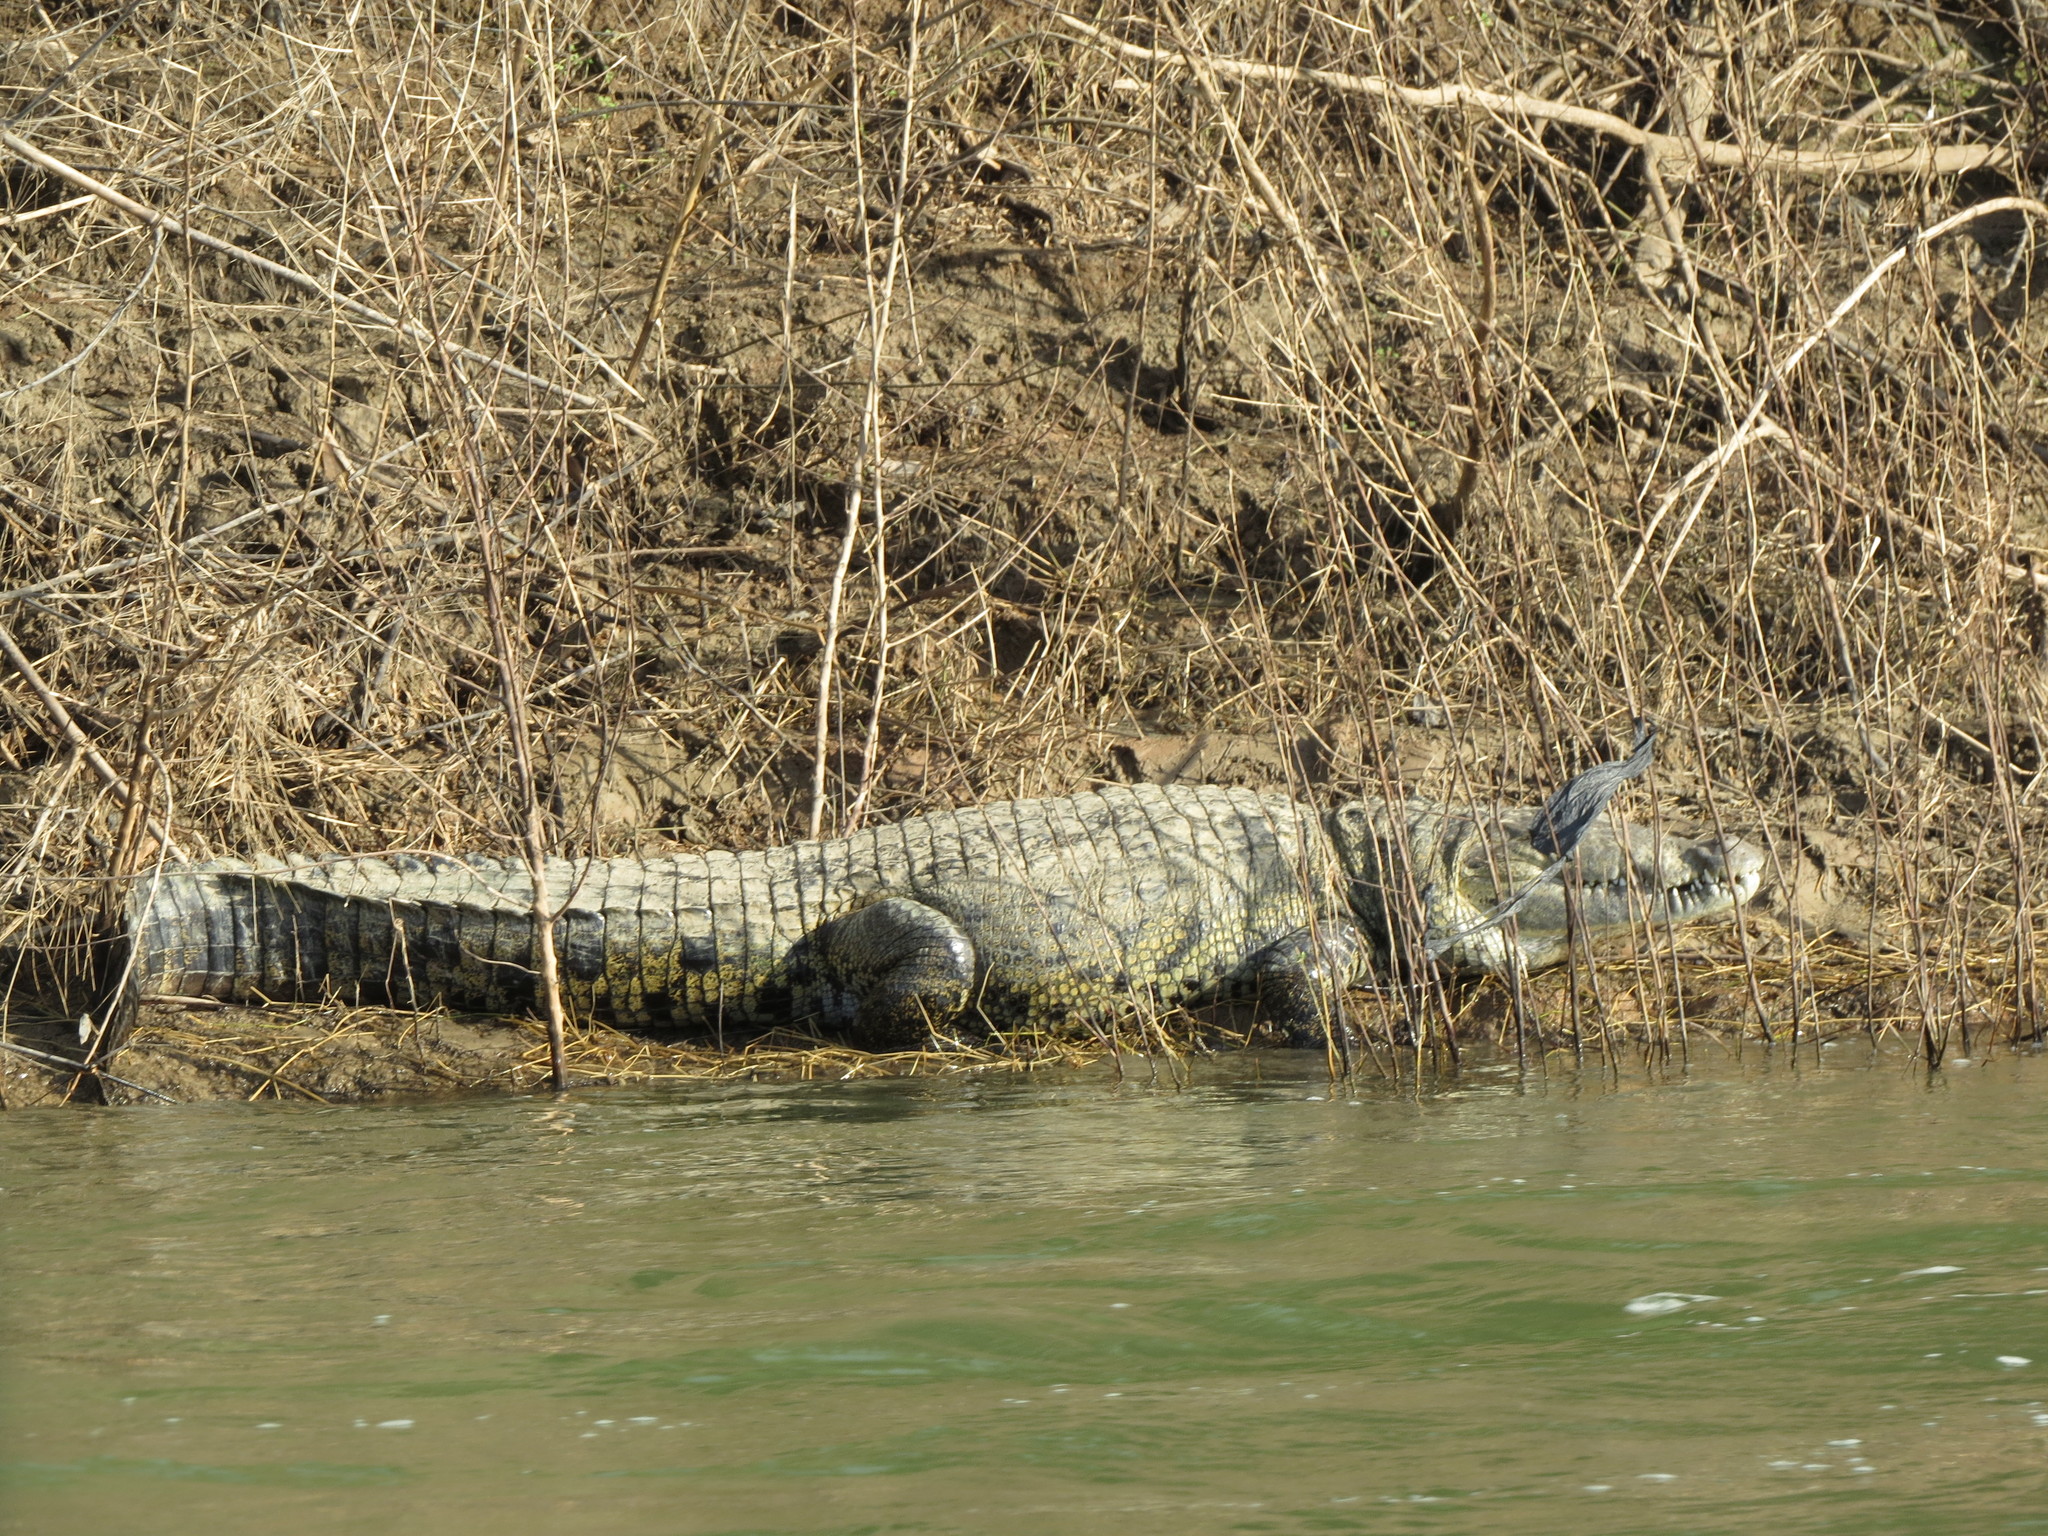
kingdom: Animalia
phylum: Chordata
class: Crocodylia
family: Crocodylidae
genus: Crocodylus
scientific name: Crocodylus moreletii
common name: Morelet's crocodile
